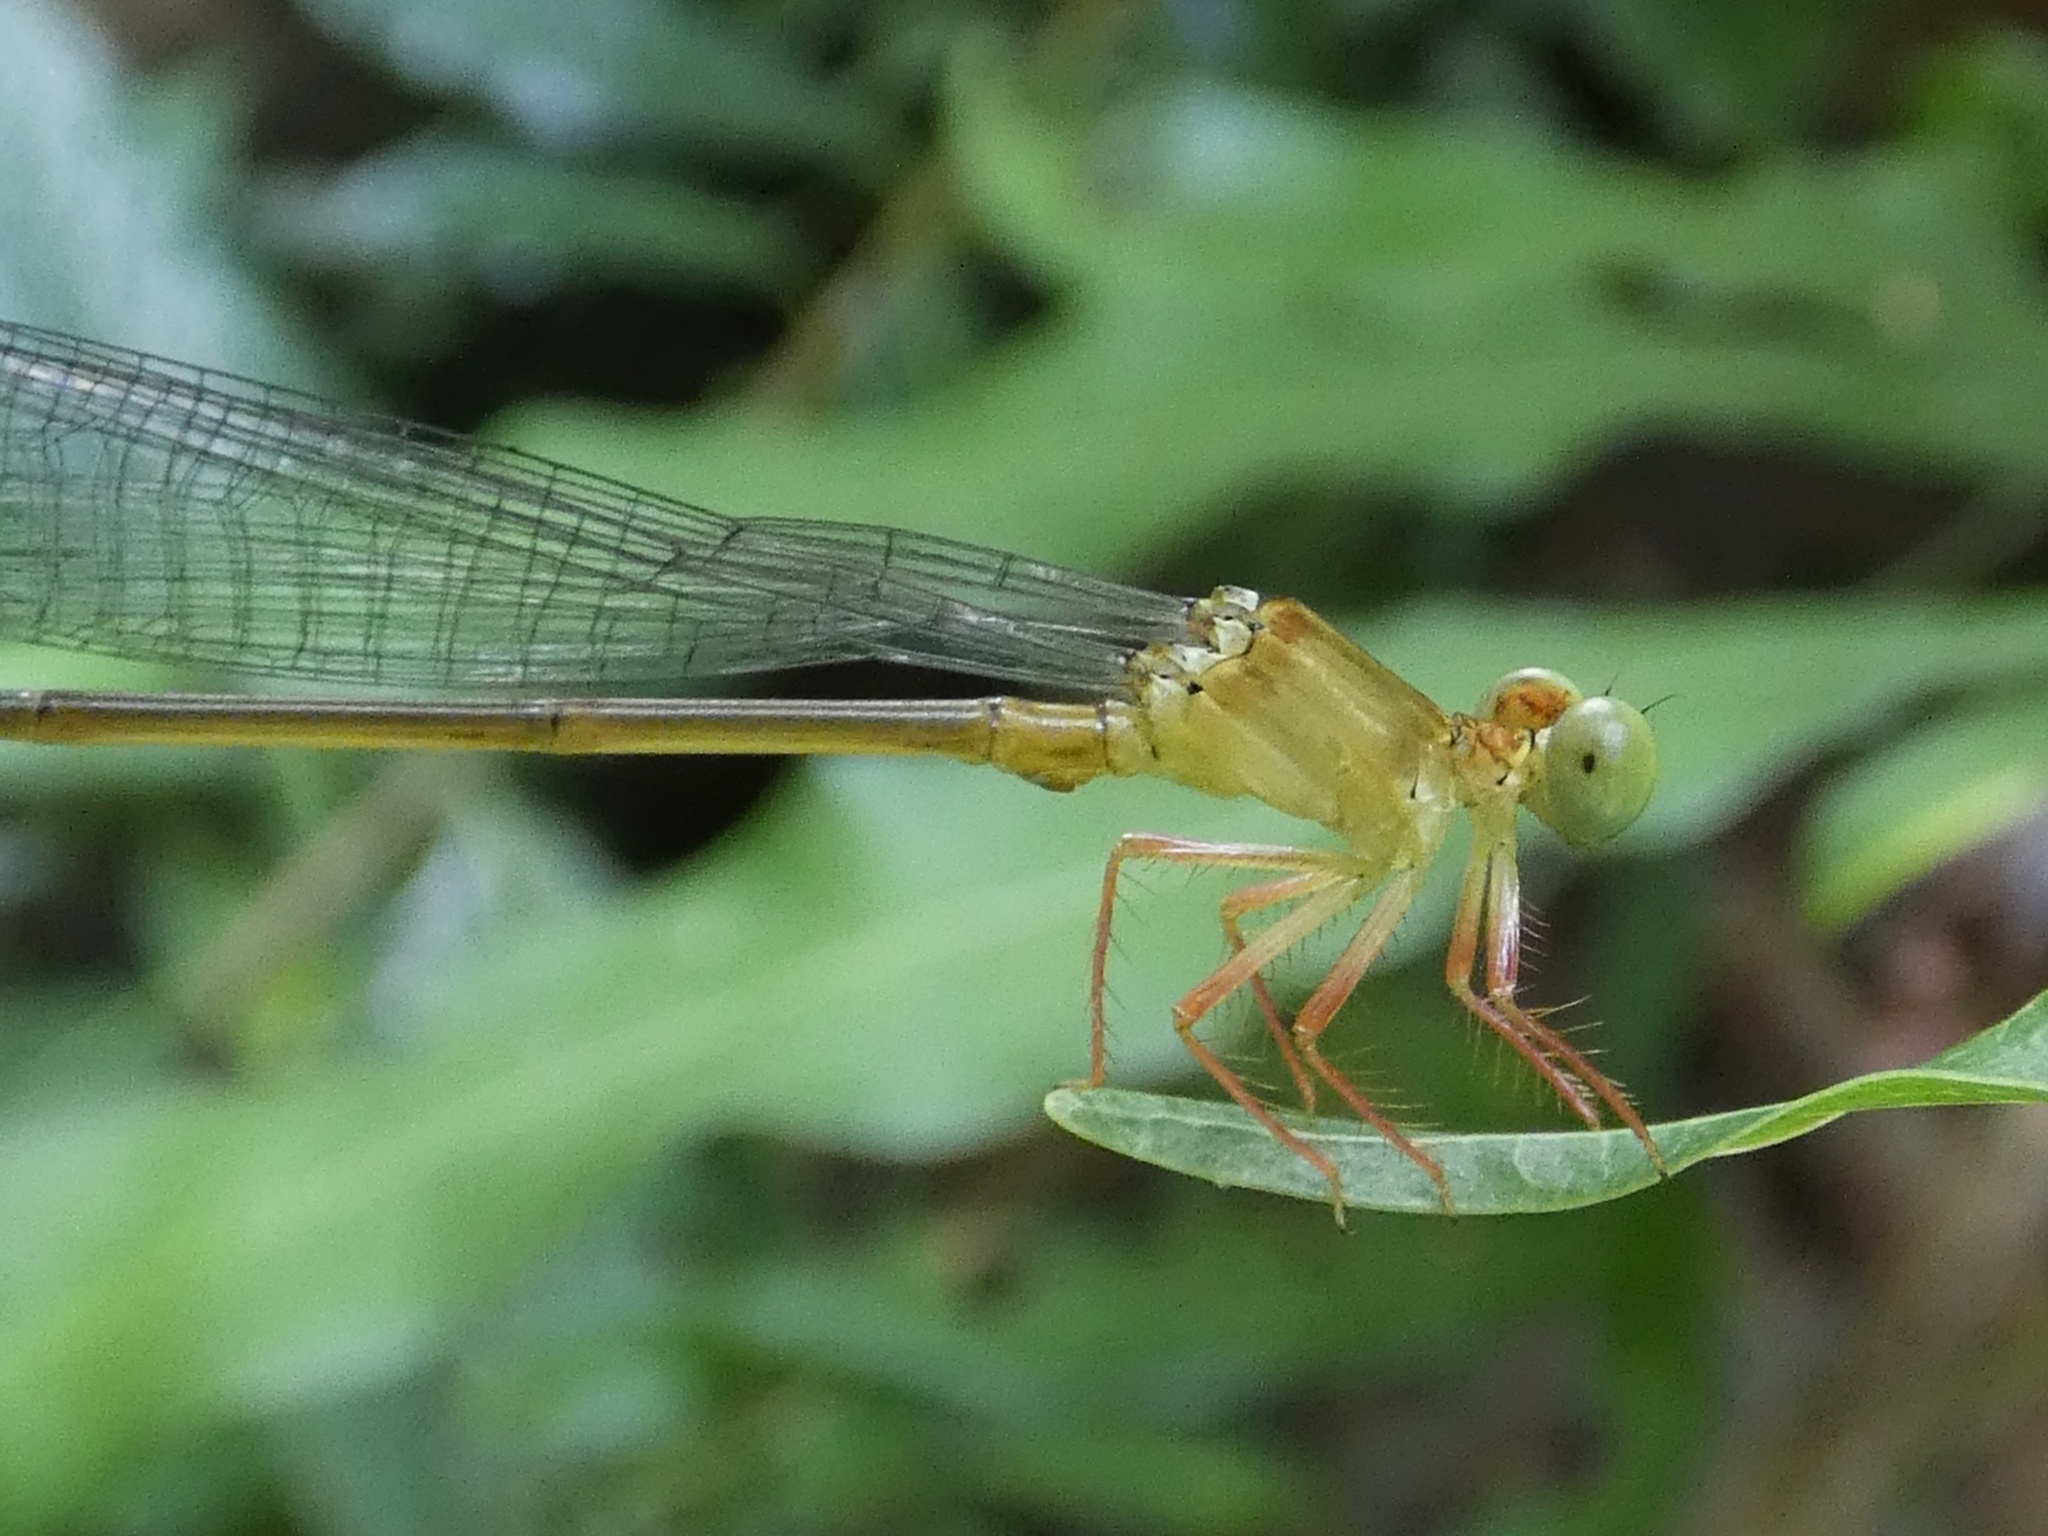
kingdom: Animalia
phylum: Arthropoda
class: Insecta
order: Odonata
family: Platycnemididae
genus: Igneocnemis
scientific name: Igneocnemis siniae
